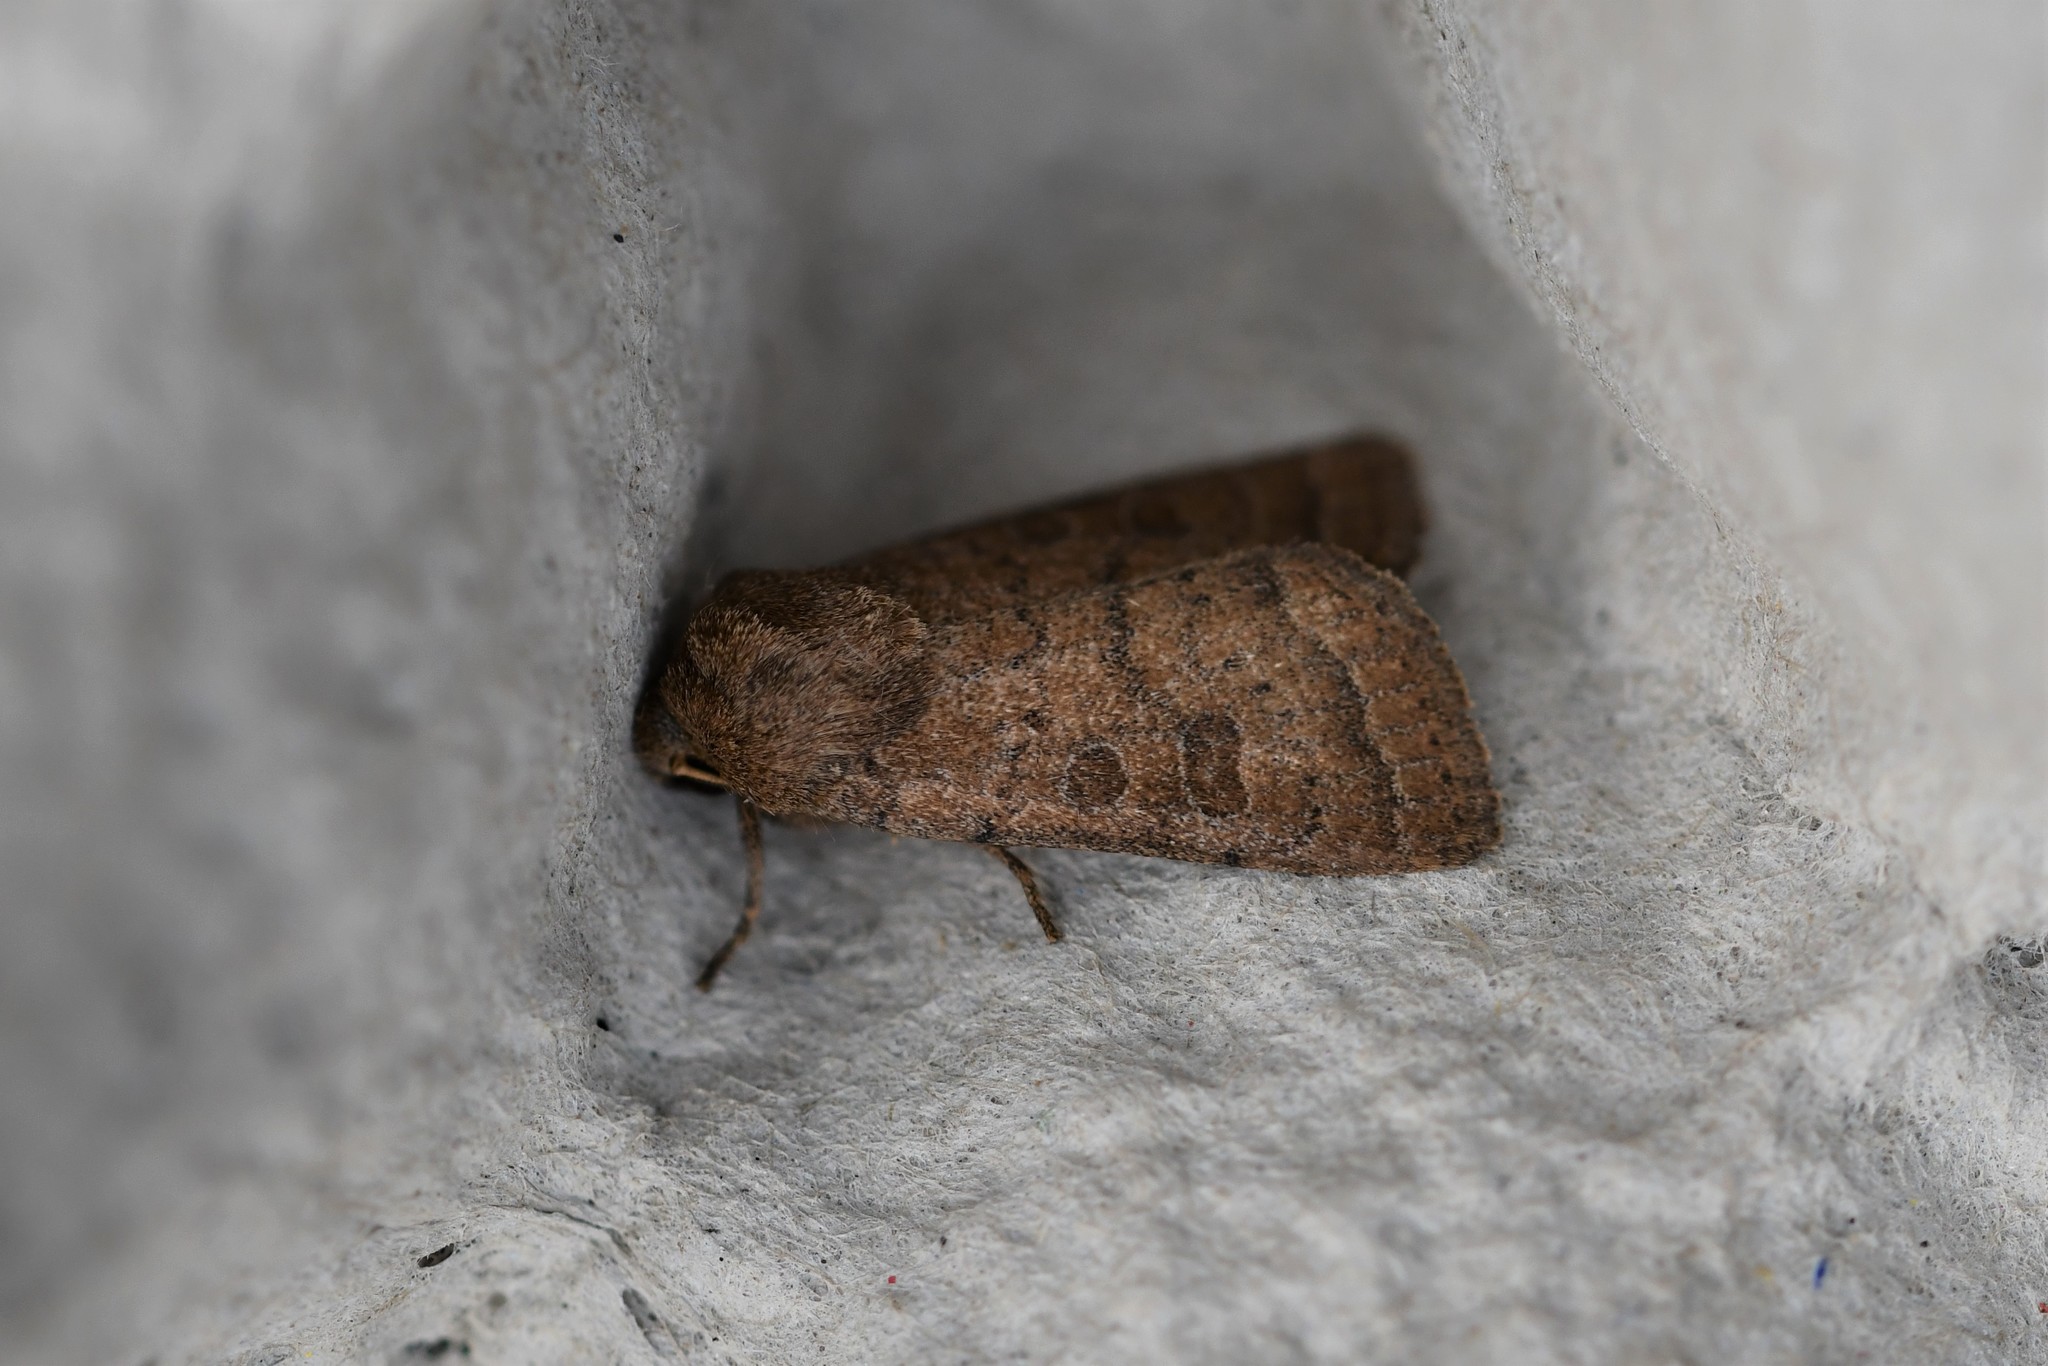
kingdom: Animalia
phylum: Arthropoda
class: Insecta
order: Lepidoptera
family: Noctuidae
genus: Hoplodrina
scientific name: Hoplodrina octogenaria
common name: Uncertain
